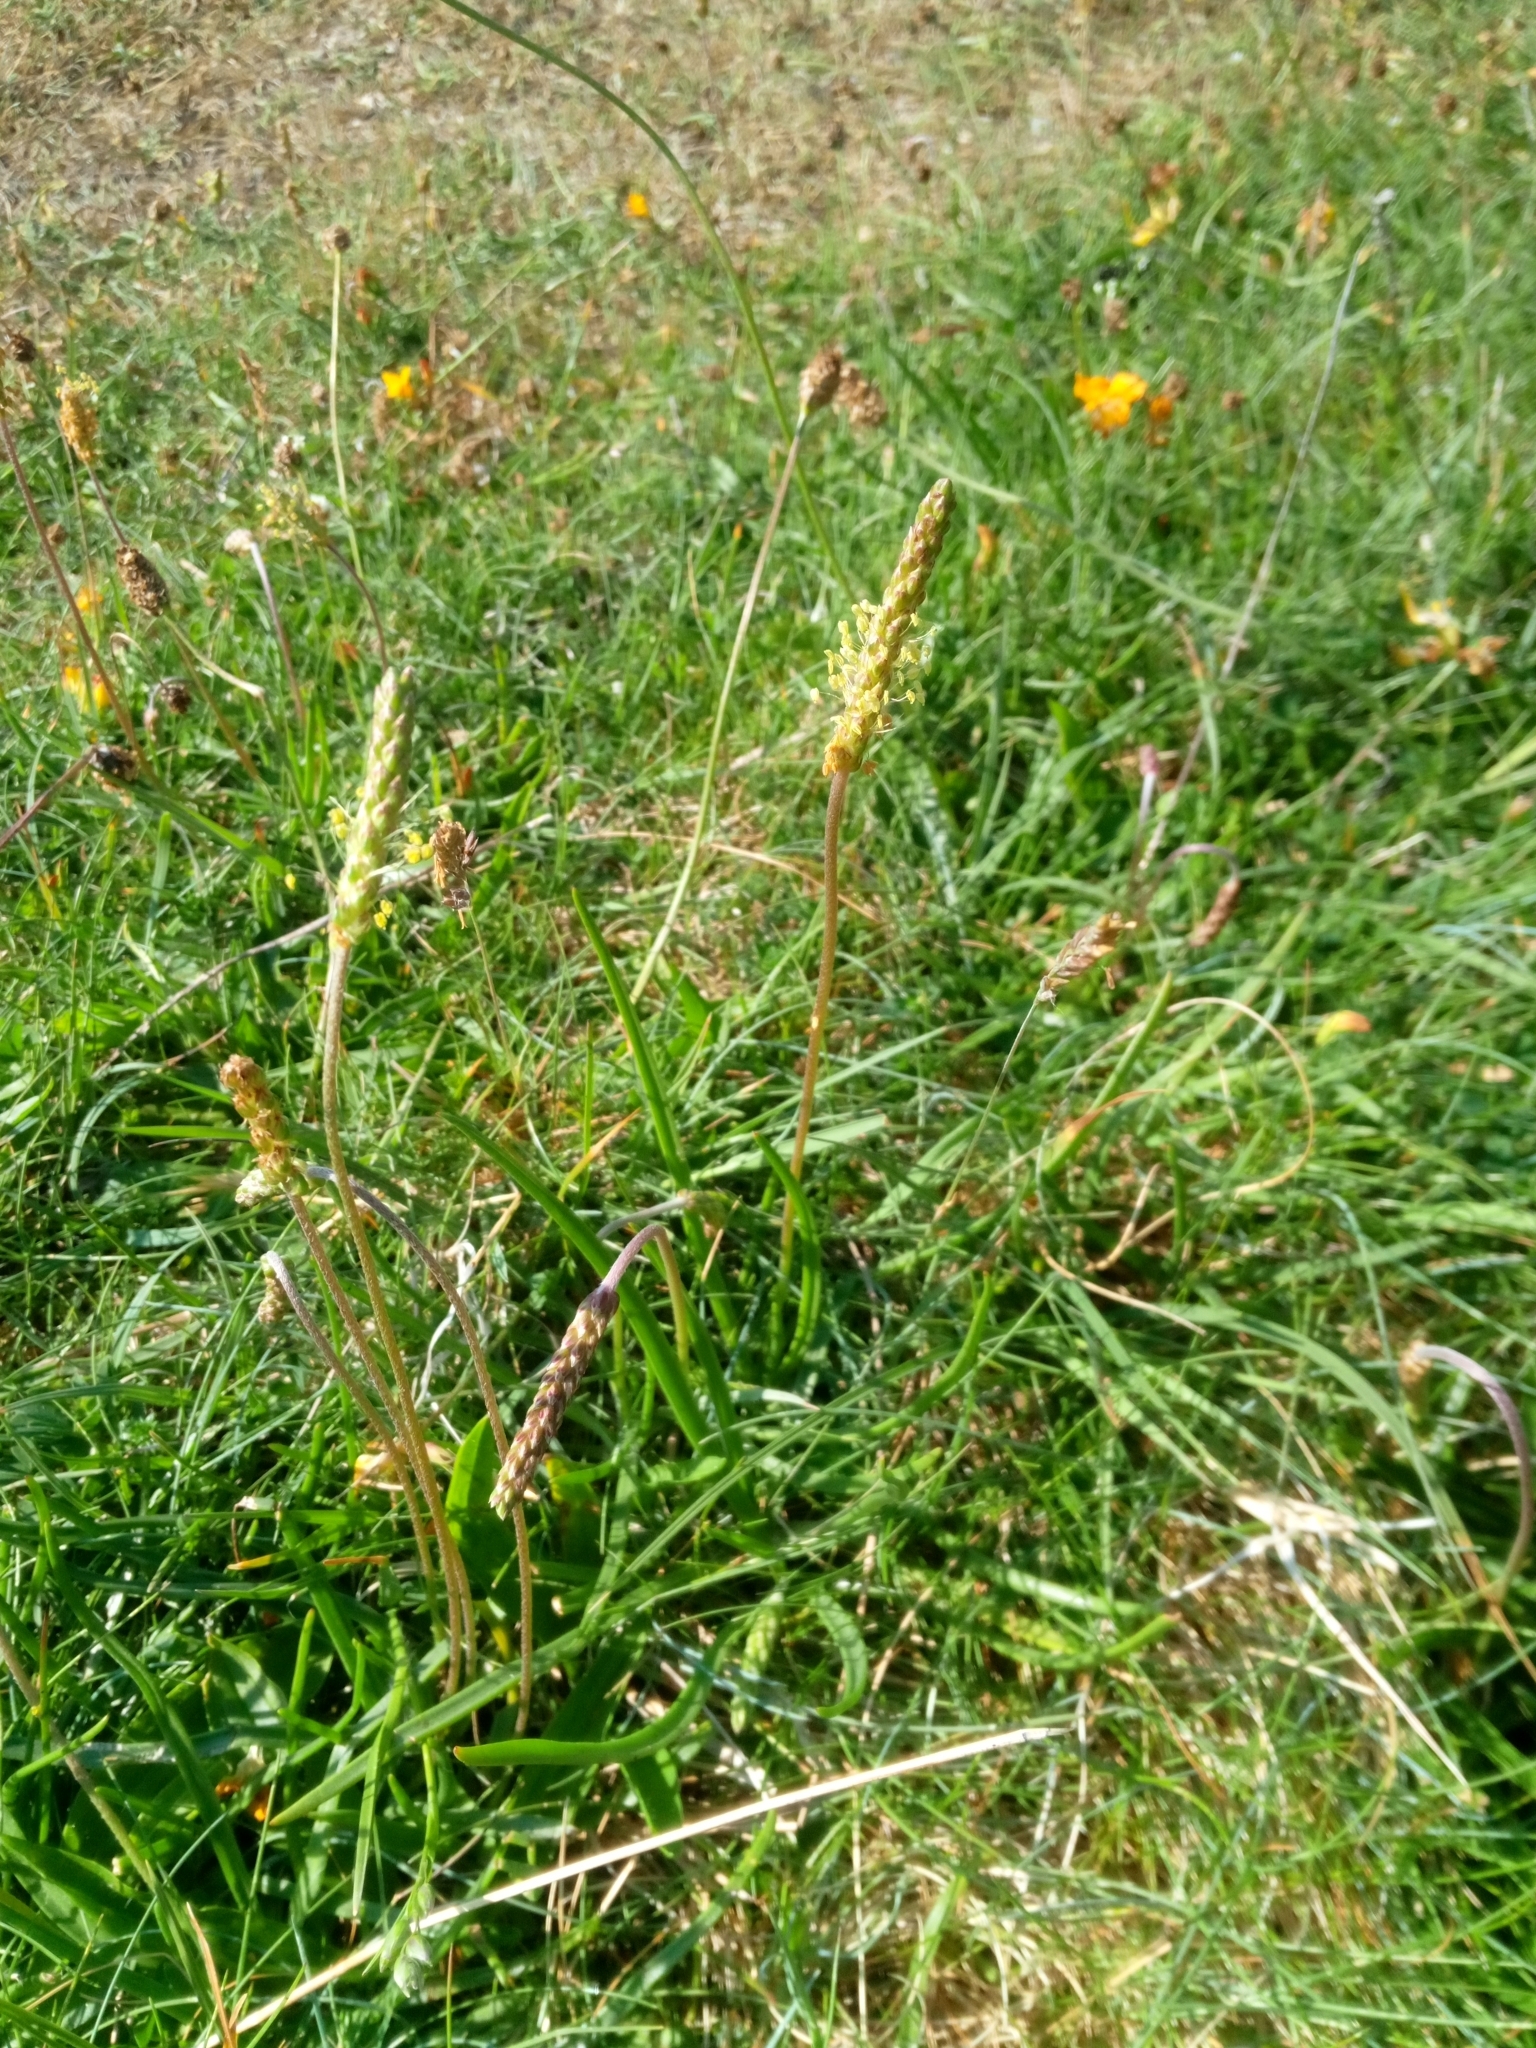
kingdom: Plantae
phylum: Tracheophyta
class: Magnoliopsida
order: Lamiales
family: Plantaginaceae
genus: Plantago
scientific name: Plantago maritima
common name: Sea plantain
